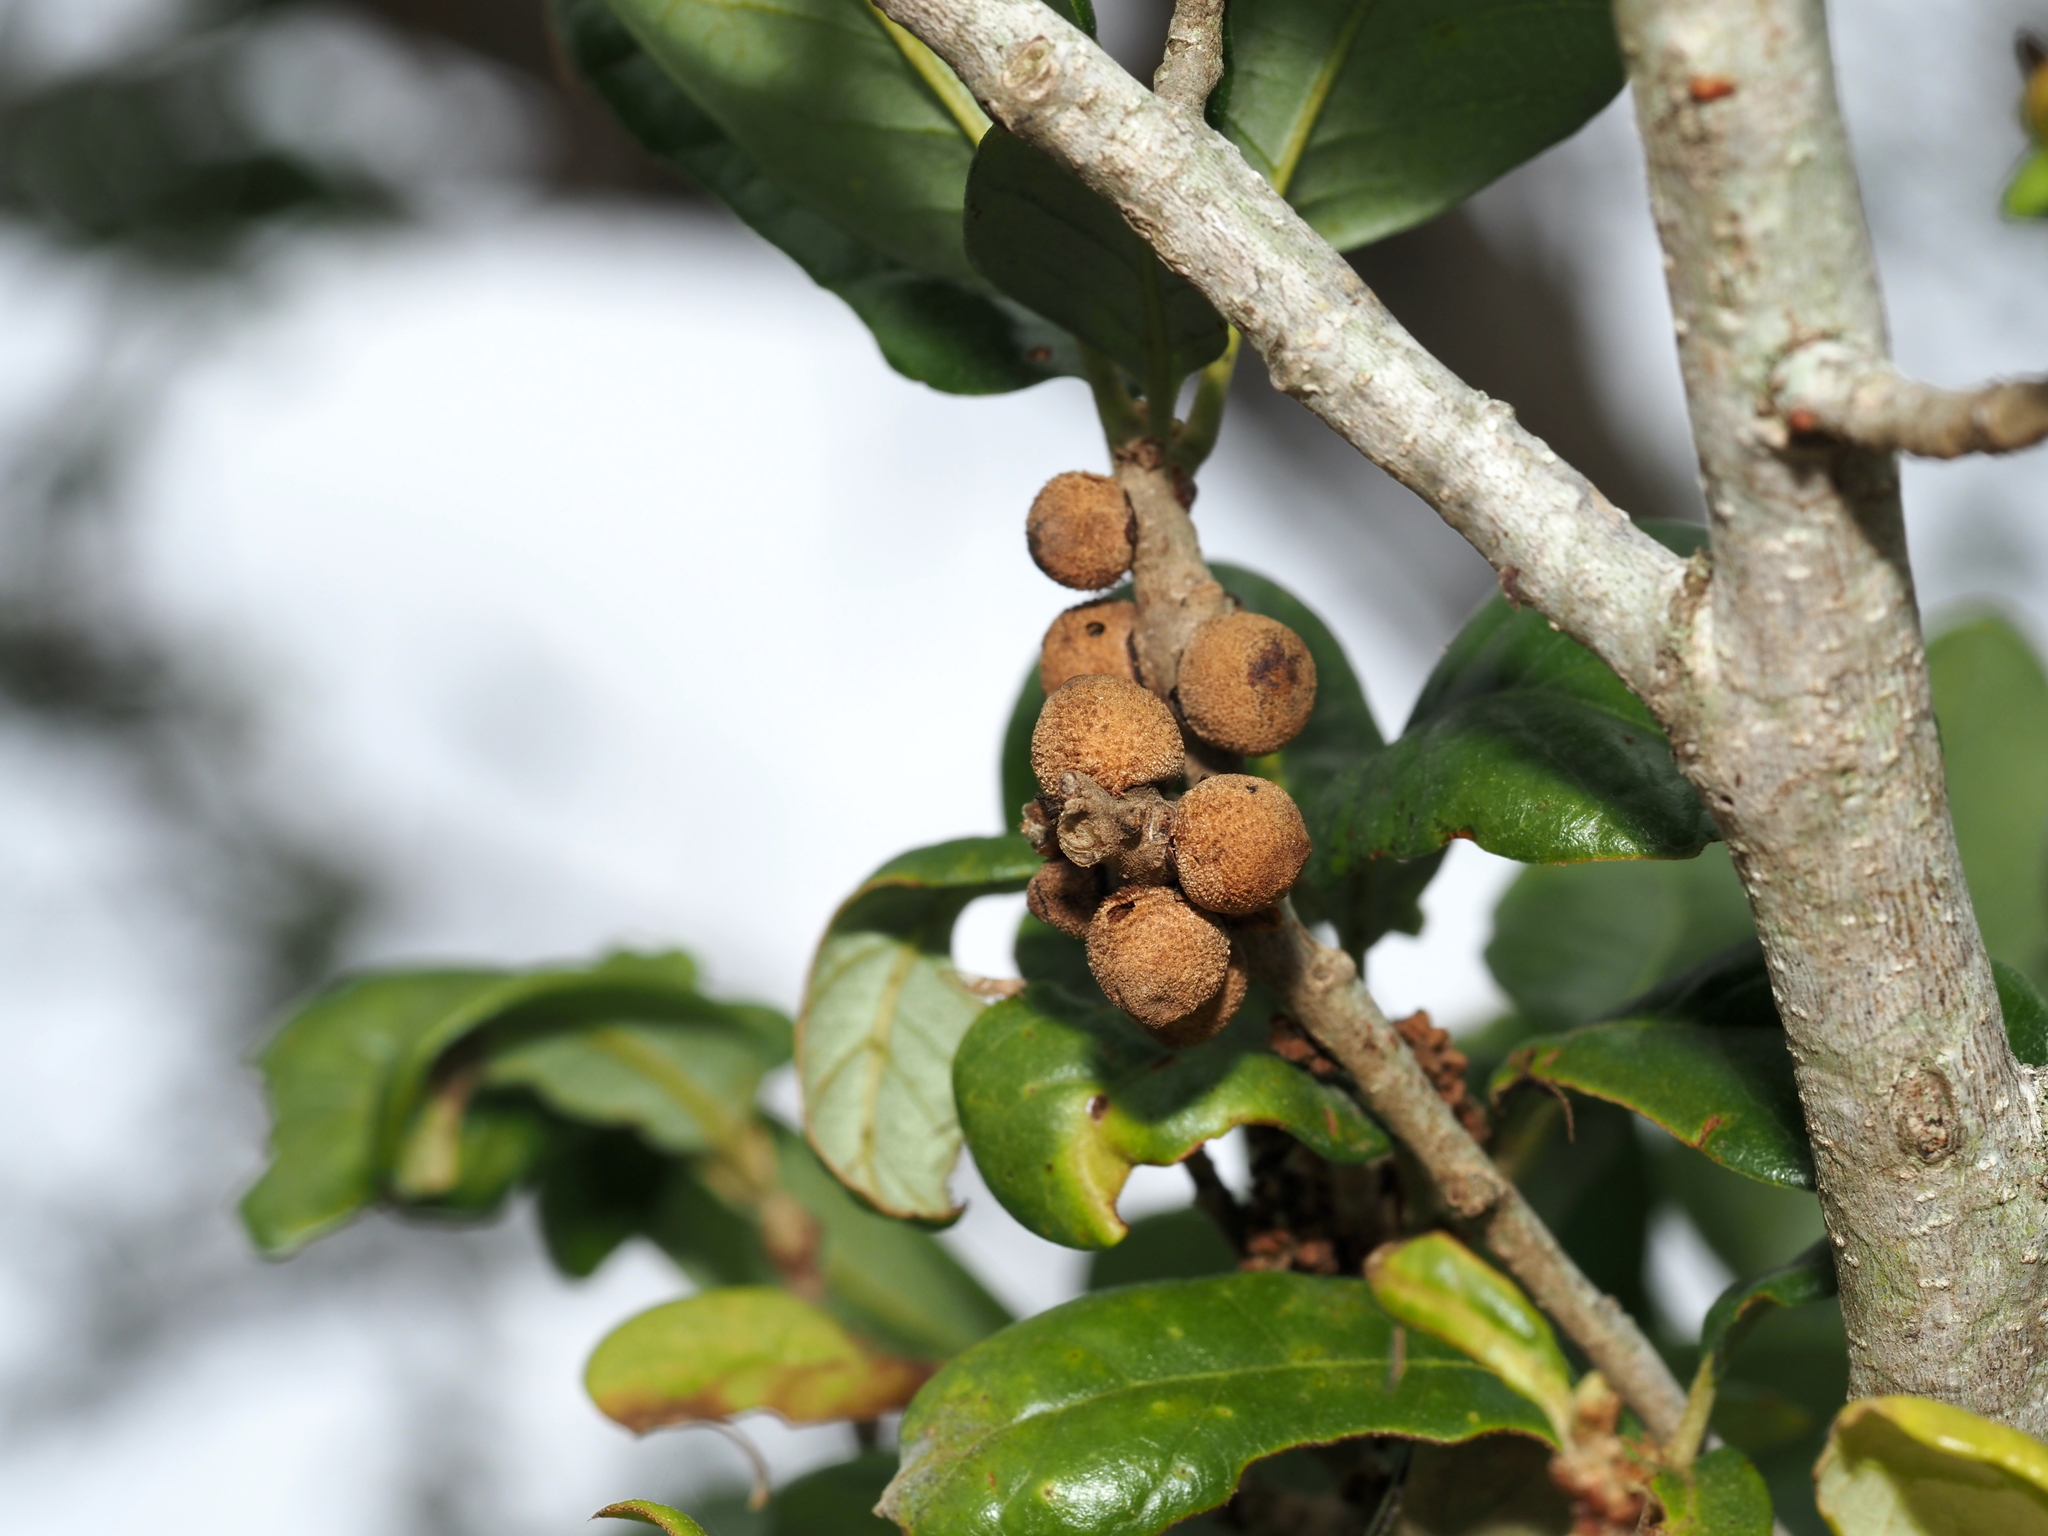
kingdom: Animalia
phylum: Arthropoda
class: Insecta
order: Hymenoptera
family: Cynipidae
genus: Disholcaspis
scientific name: Disholcaspis
